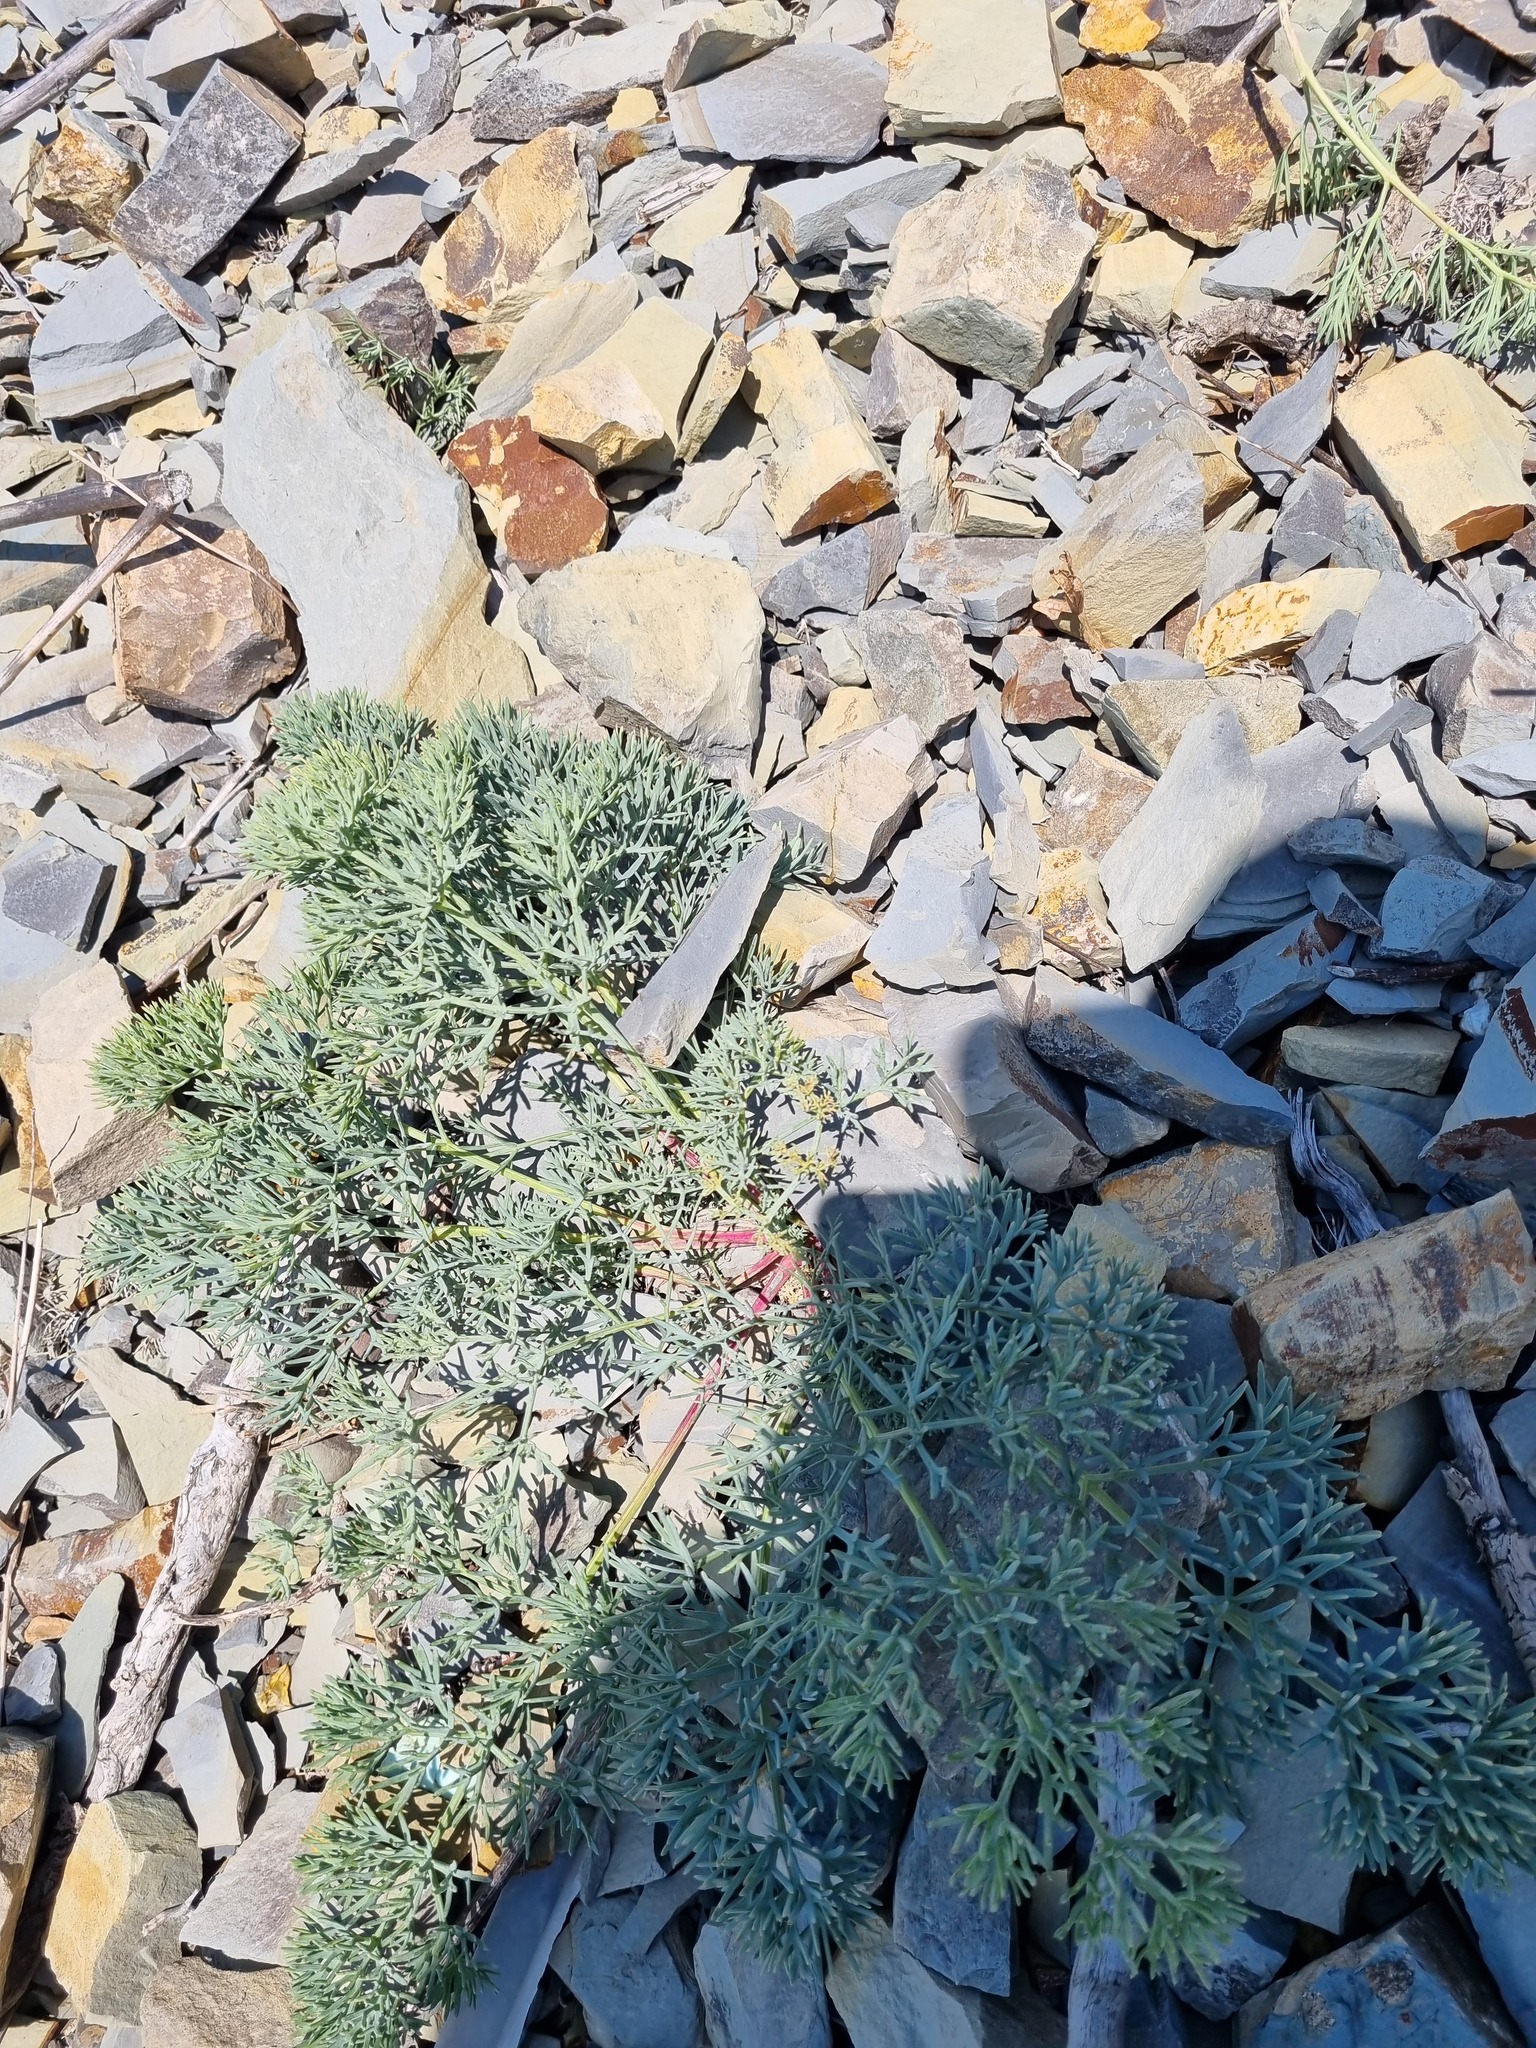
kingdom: Plantae
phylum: Tracheophyta
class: Magnoliopsida
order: Apiales
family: Apiaceae
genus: Seseli
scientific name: Seseli ponticum
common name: Pontic seseli
